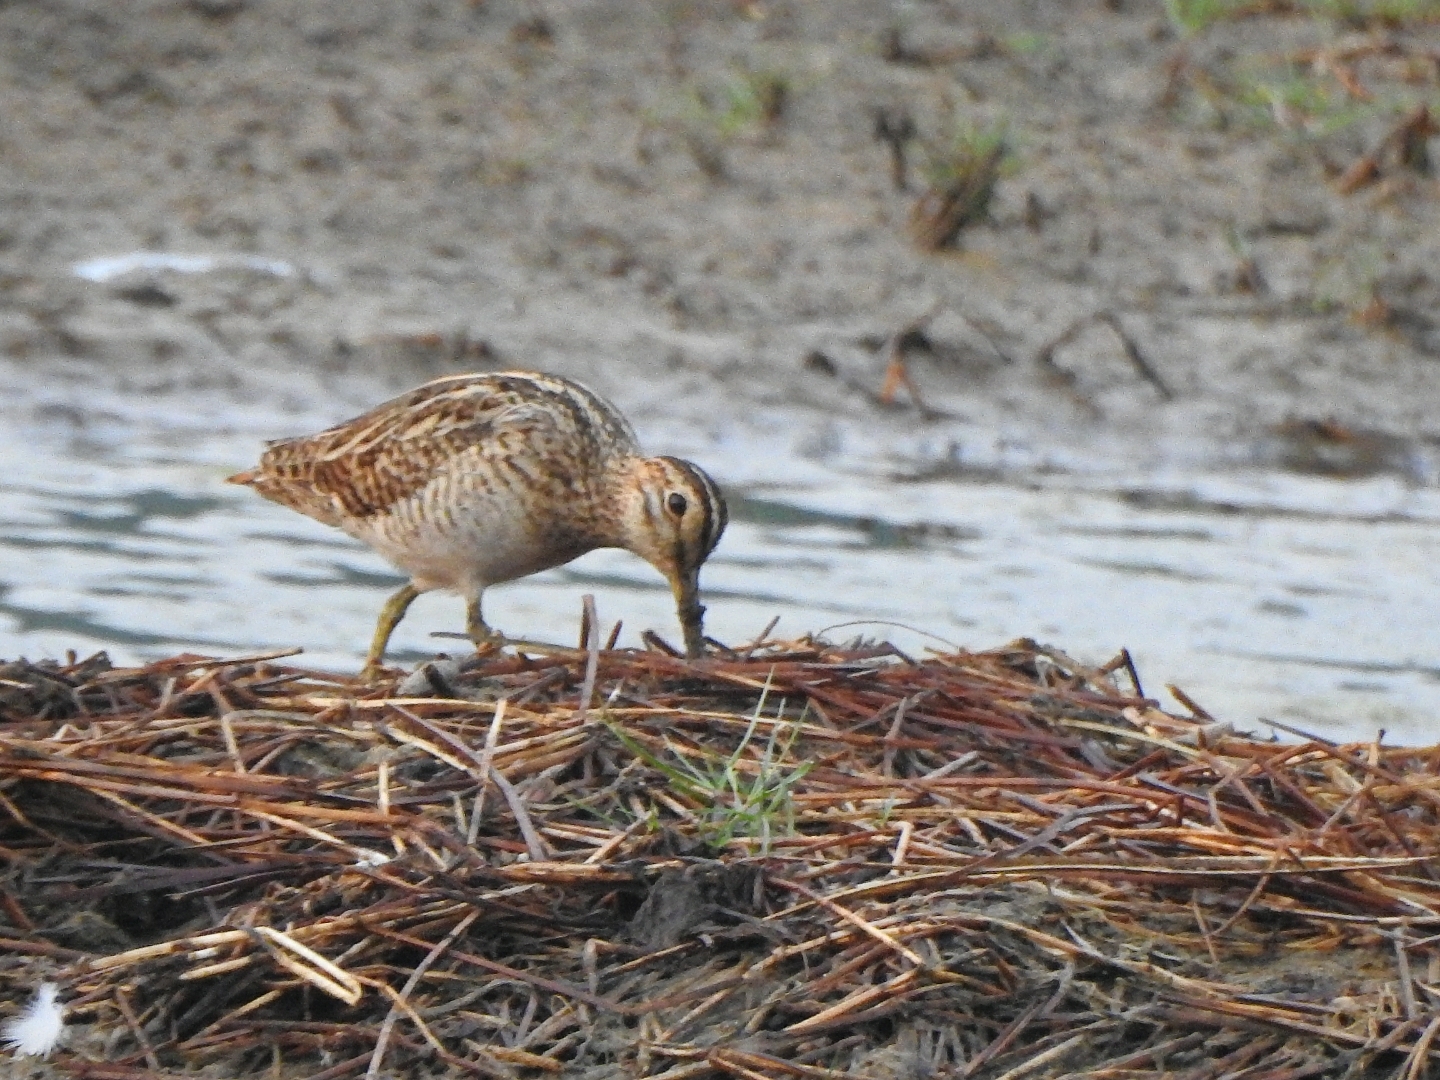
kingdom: Animalia
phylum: Chordata
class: Aves
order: Charadriiformes
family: Scolopacidae
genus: Gallinago
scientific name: Gallinago stenura
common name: Pin-tailed snipe
